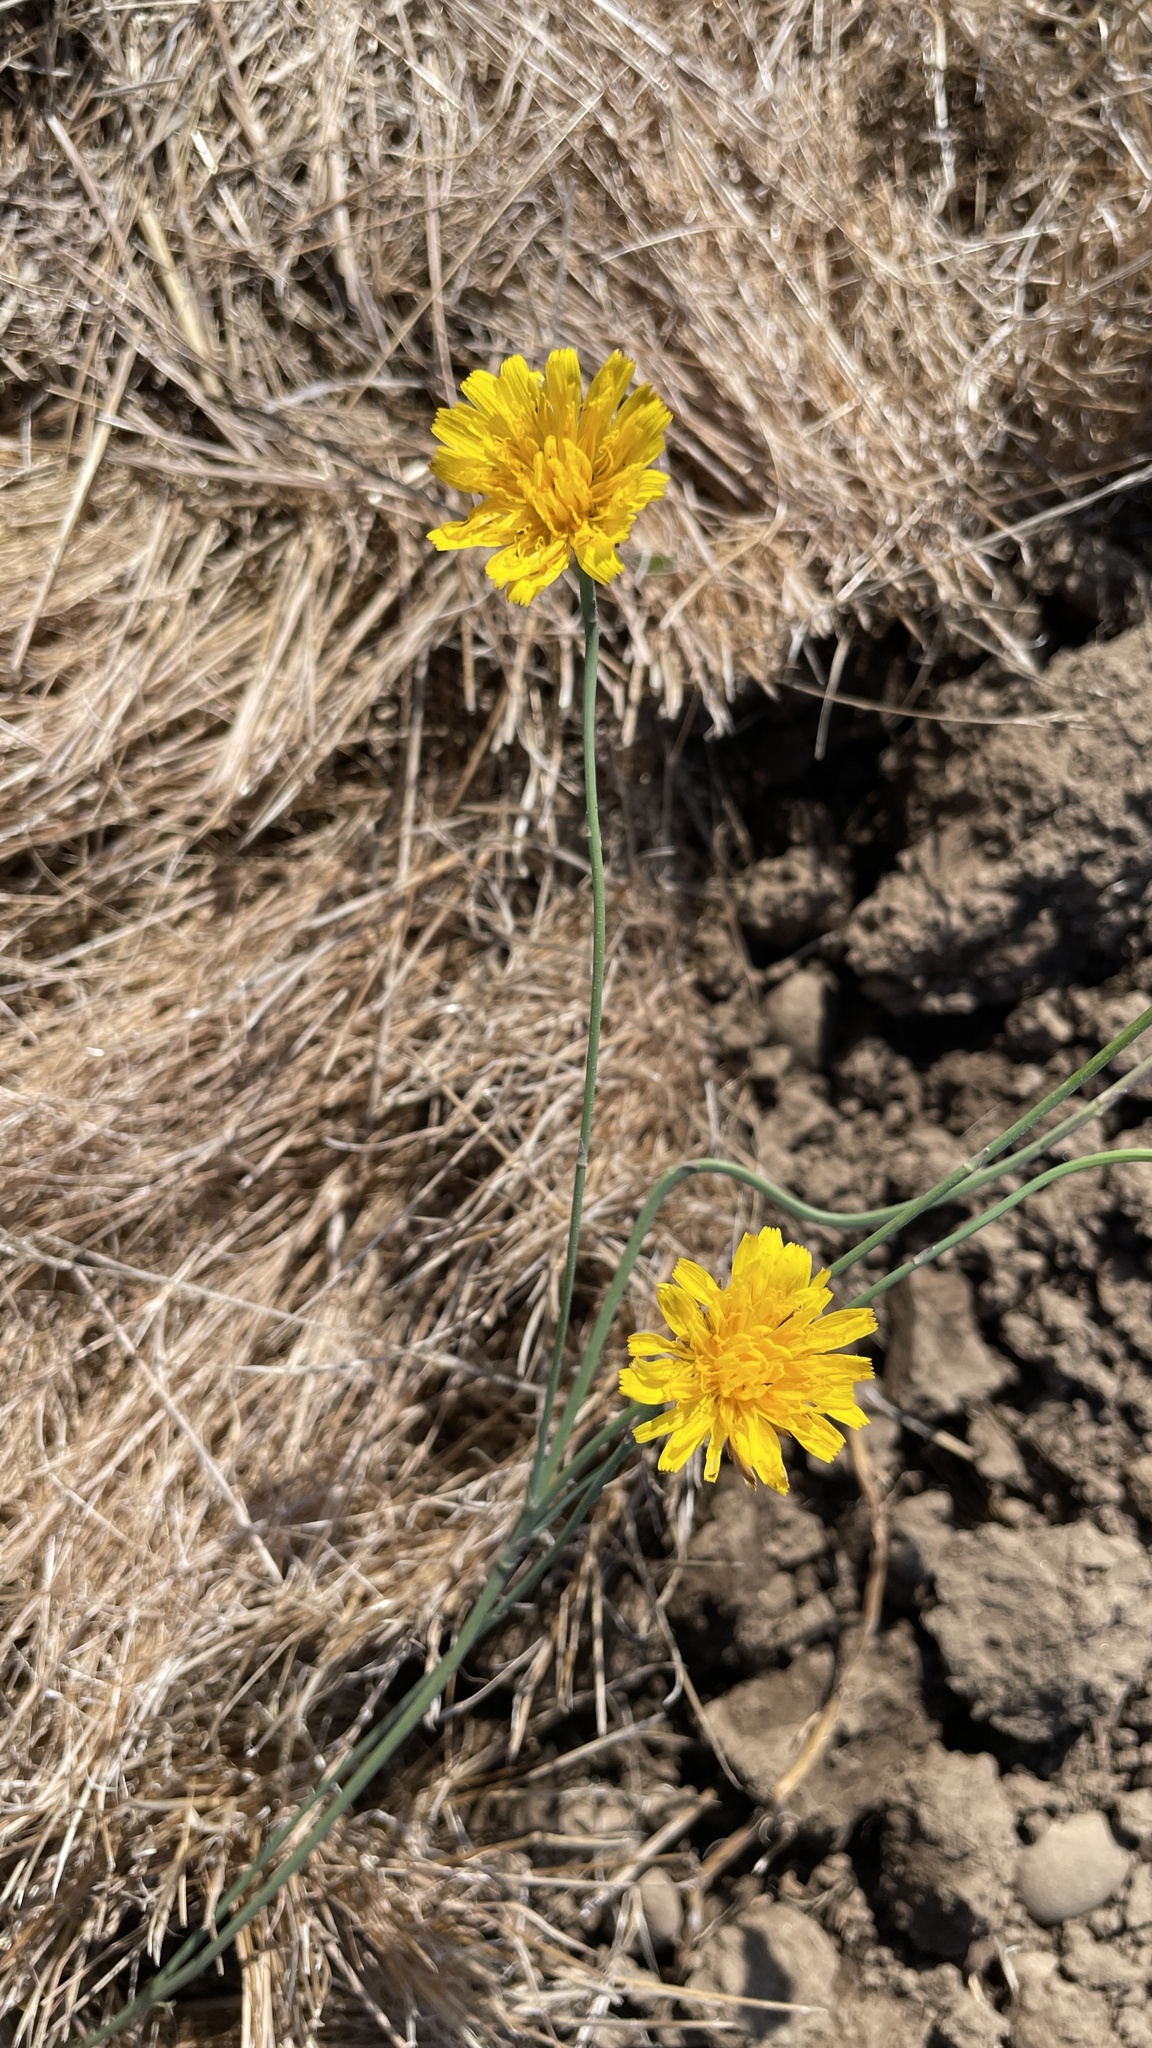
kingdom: Plantae
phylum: Tracheophyta
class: Magnoliopsida
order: Asterales
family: Asteraceae
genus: Hypochaeris
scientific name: Hypochaeris radicata
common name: Flatweed
